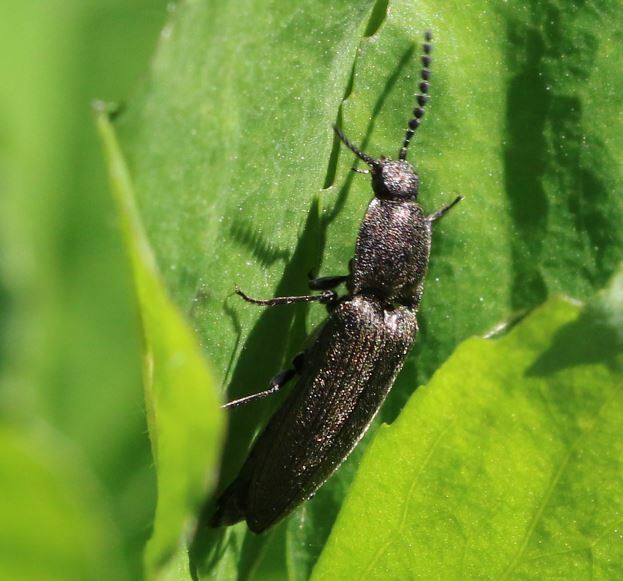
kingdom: Animalia
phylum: Arthropoda
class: Insecta
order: Coleoptera
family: Elateridae
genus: Cidnopus
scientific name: Cidnopus pilosus
